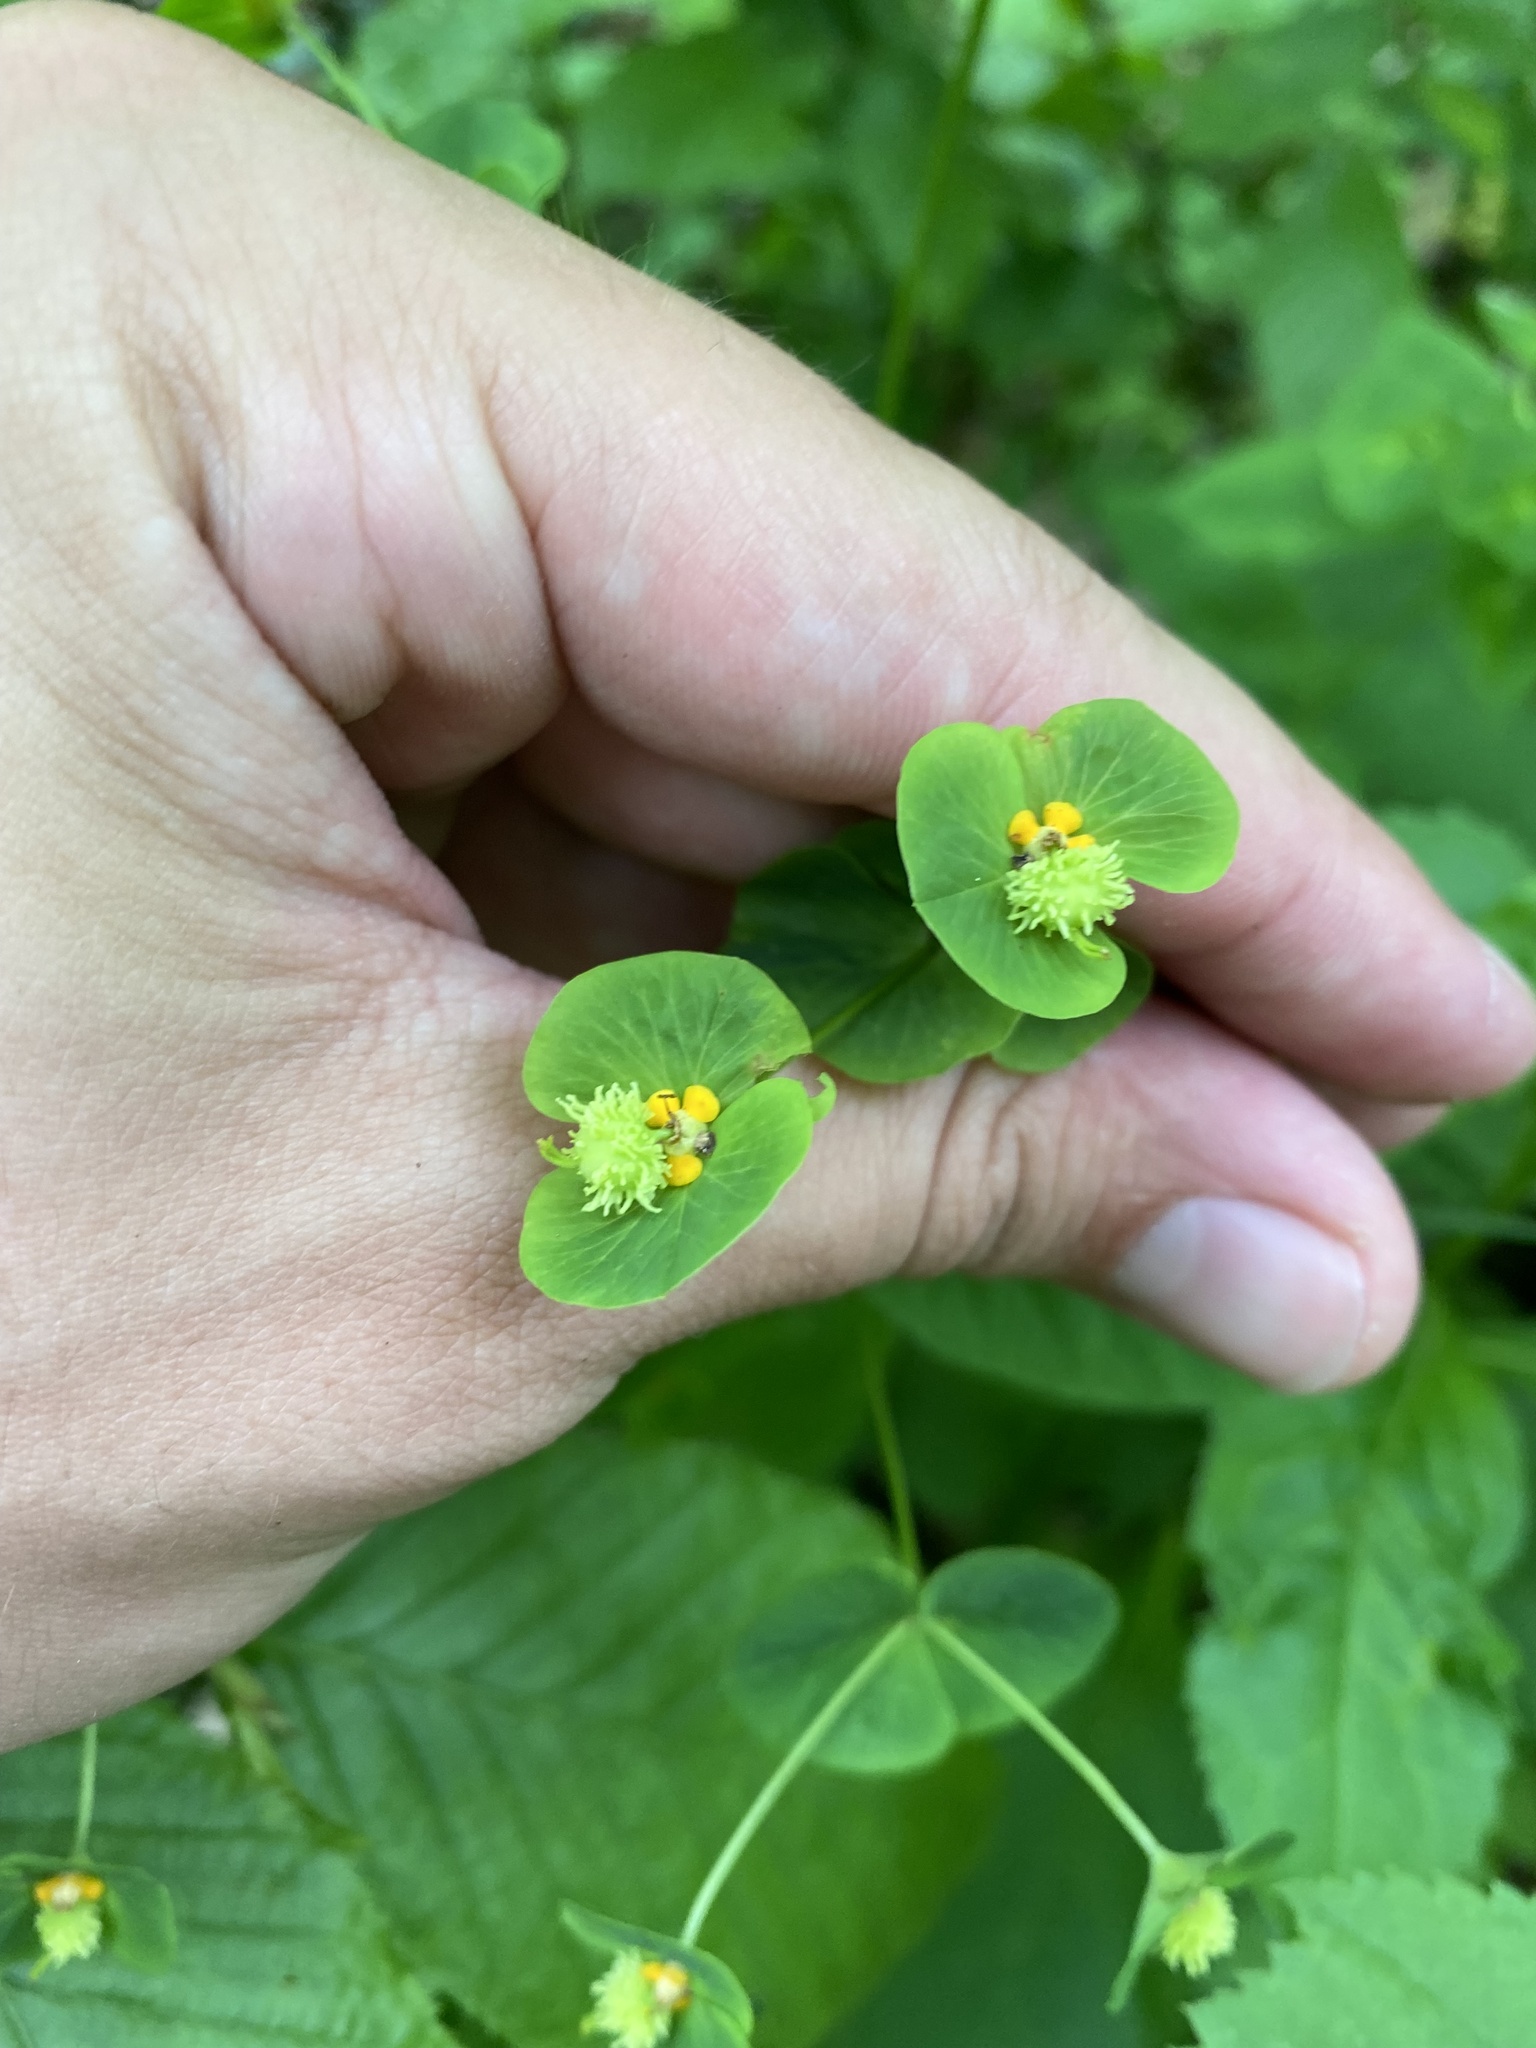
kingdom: Plantae
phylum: Tracheophyta
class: Magnoliopsida
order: Malpighiales
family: Euphorbiaceae
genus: Euphorbia
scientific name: Euphorbia squamosa
